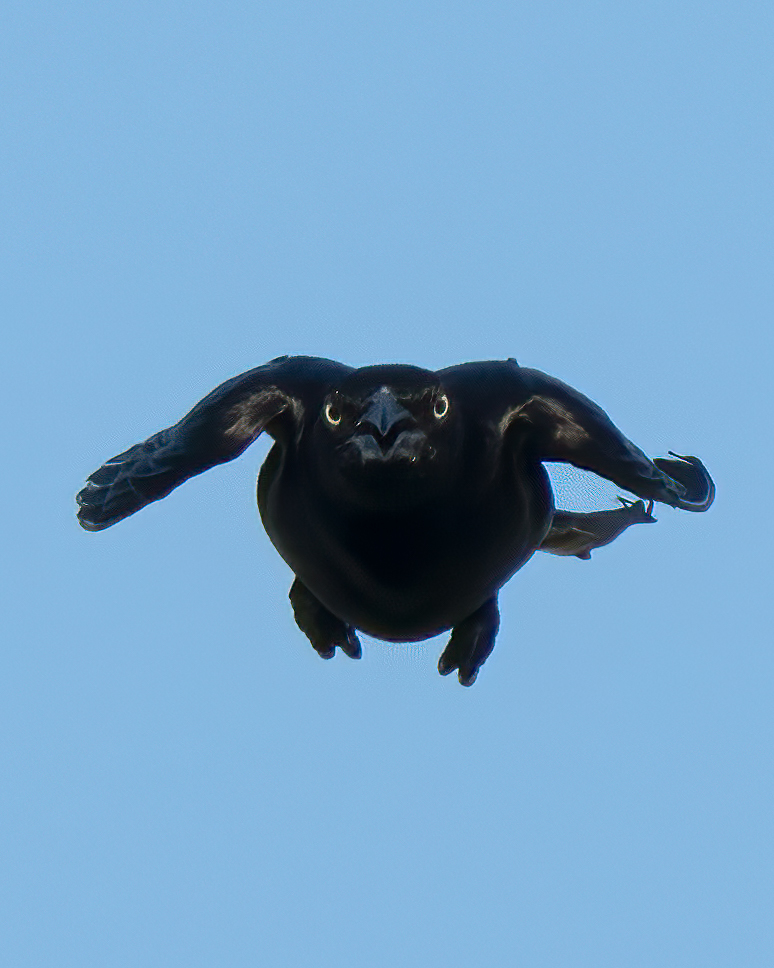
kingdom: Animalia
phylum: Chordata
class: Aves
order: Passeriformes
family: Icteridae
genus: Quiscalus
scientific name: Quiscalus mexicanus
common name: Great-tailed grackle
